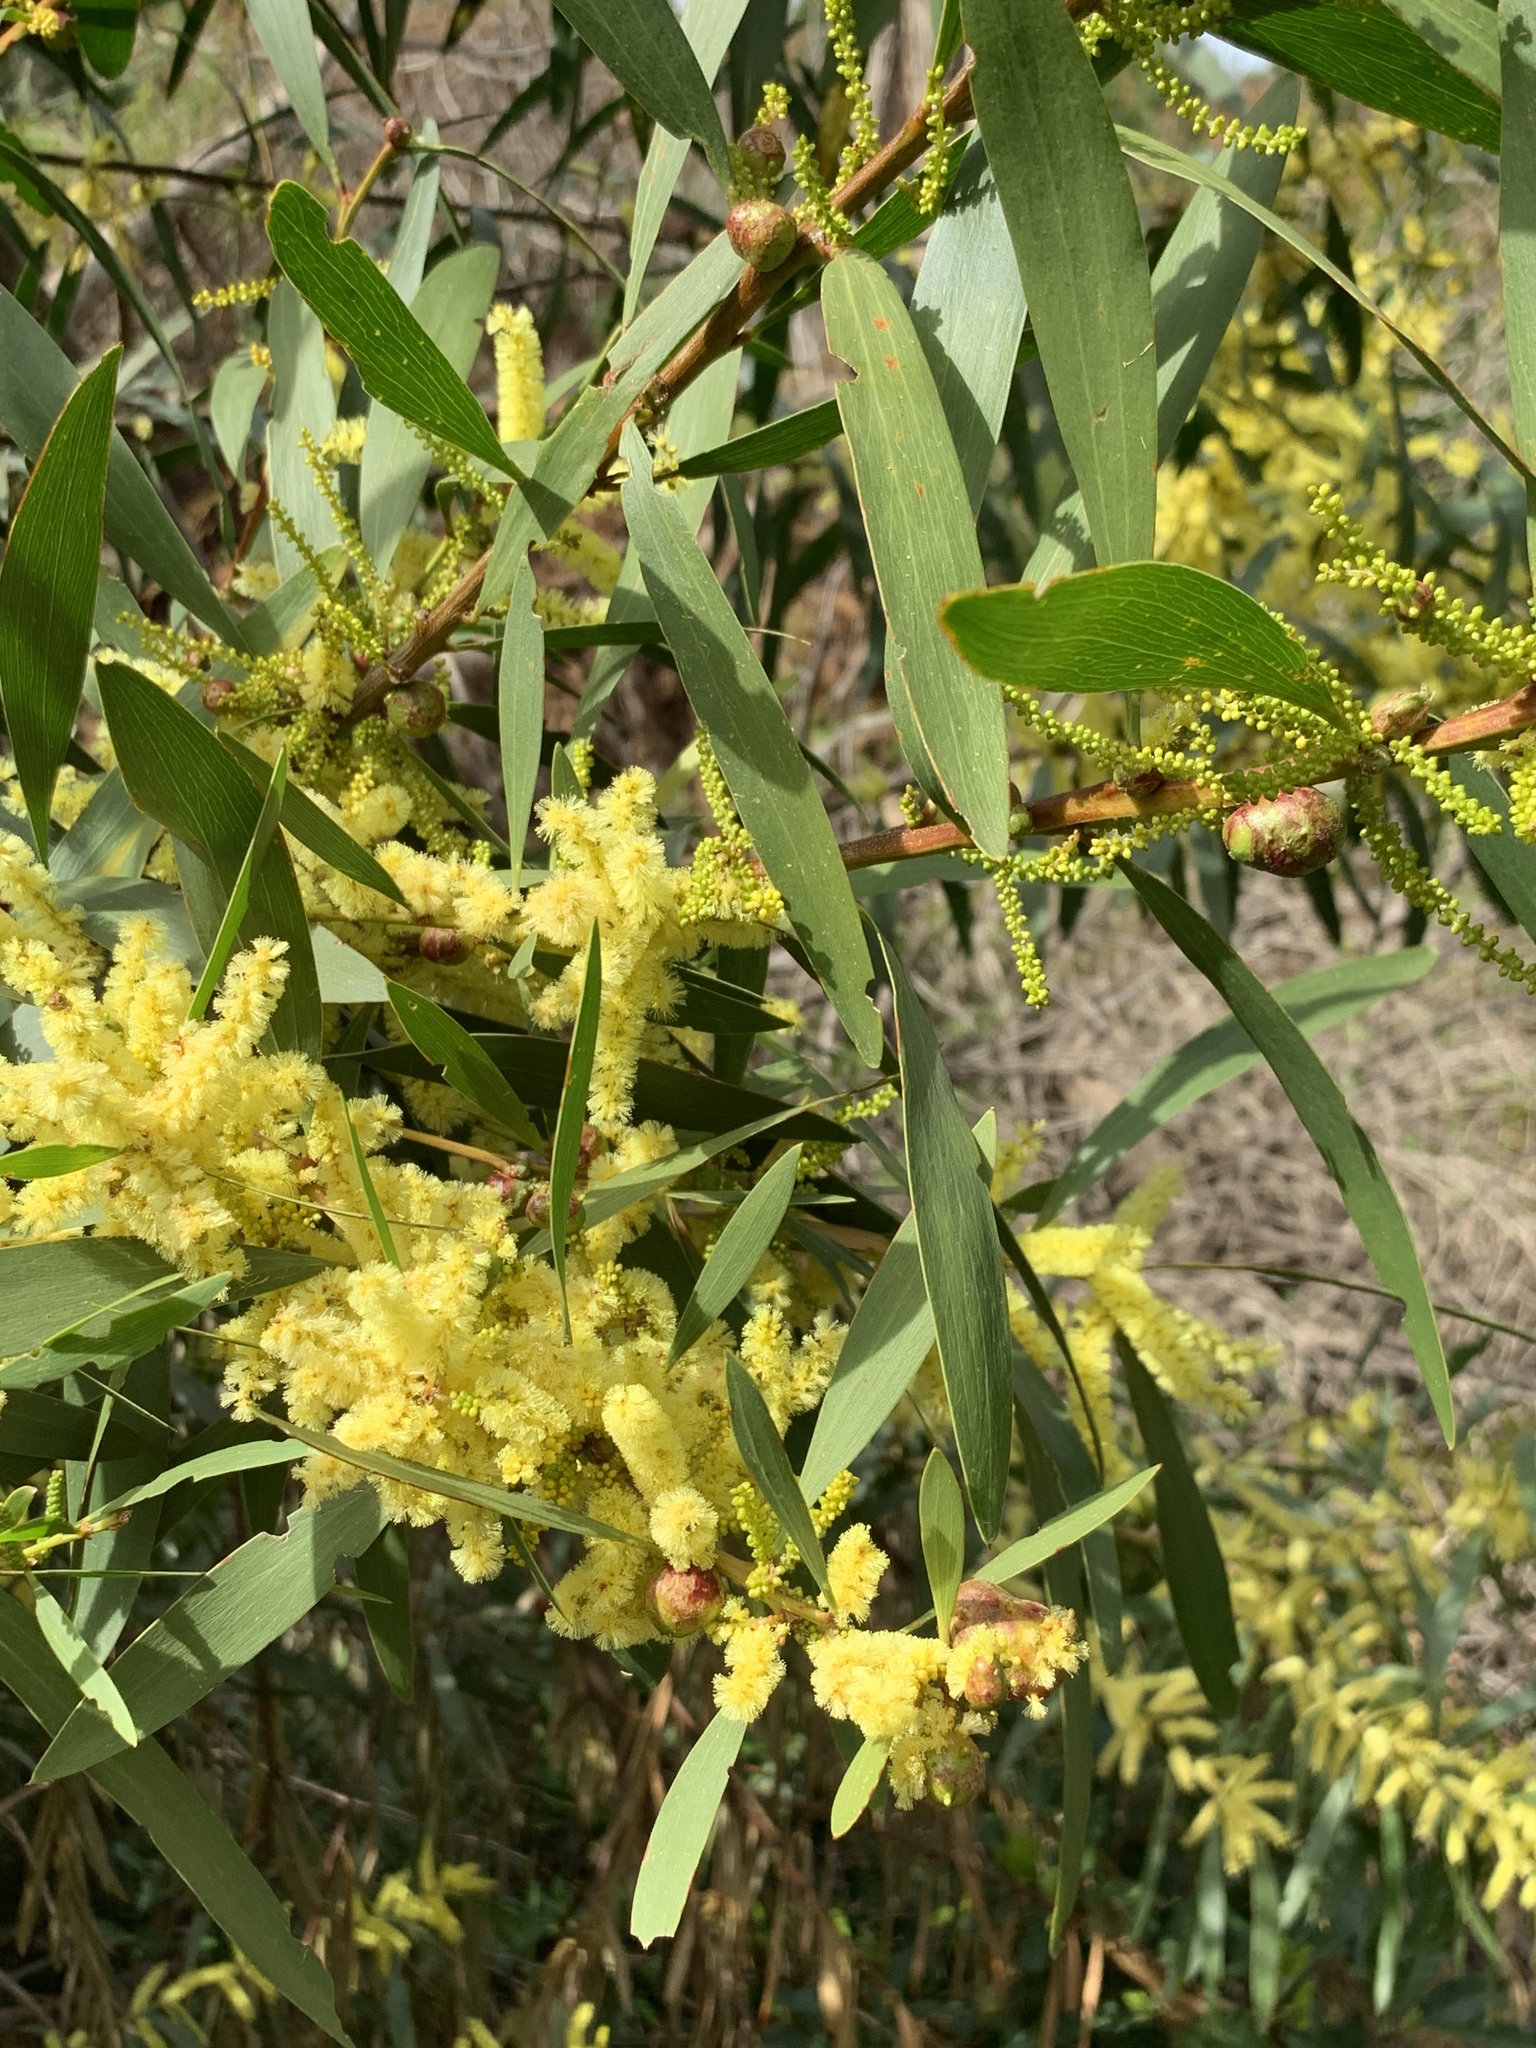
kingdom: Plantae
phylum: Tracheophyta
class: Magnoliopsida
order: Fabales
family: Fabaceae
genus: Acacia
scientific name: Acacia longifolia
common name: Sydney golden wattle
